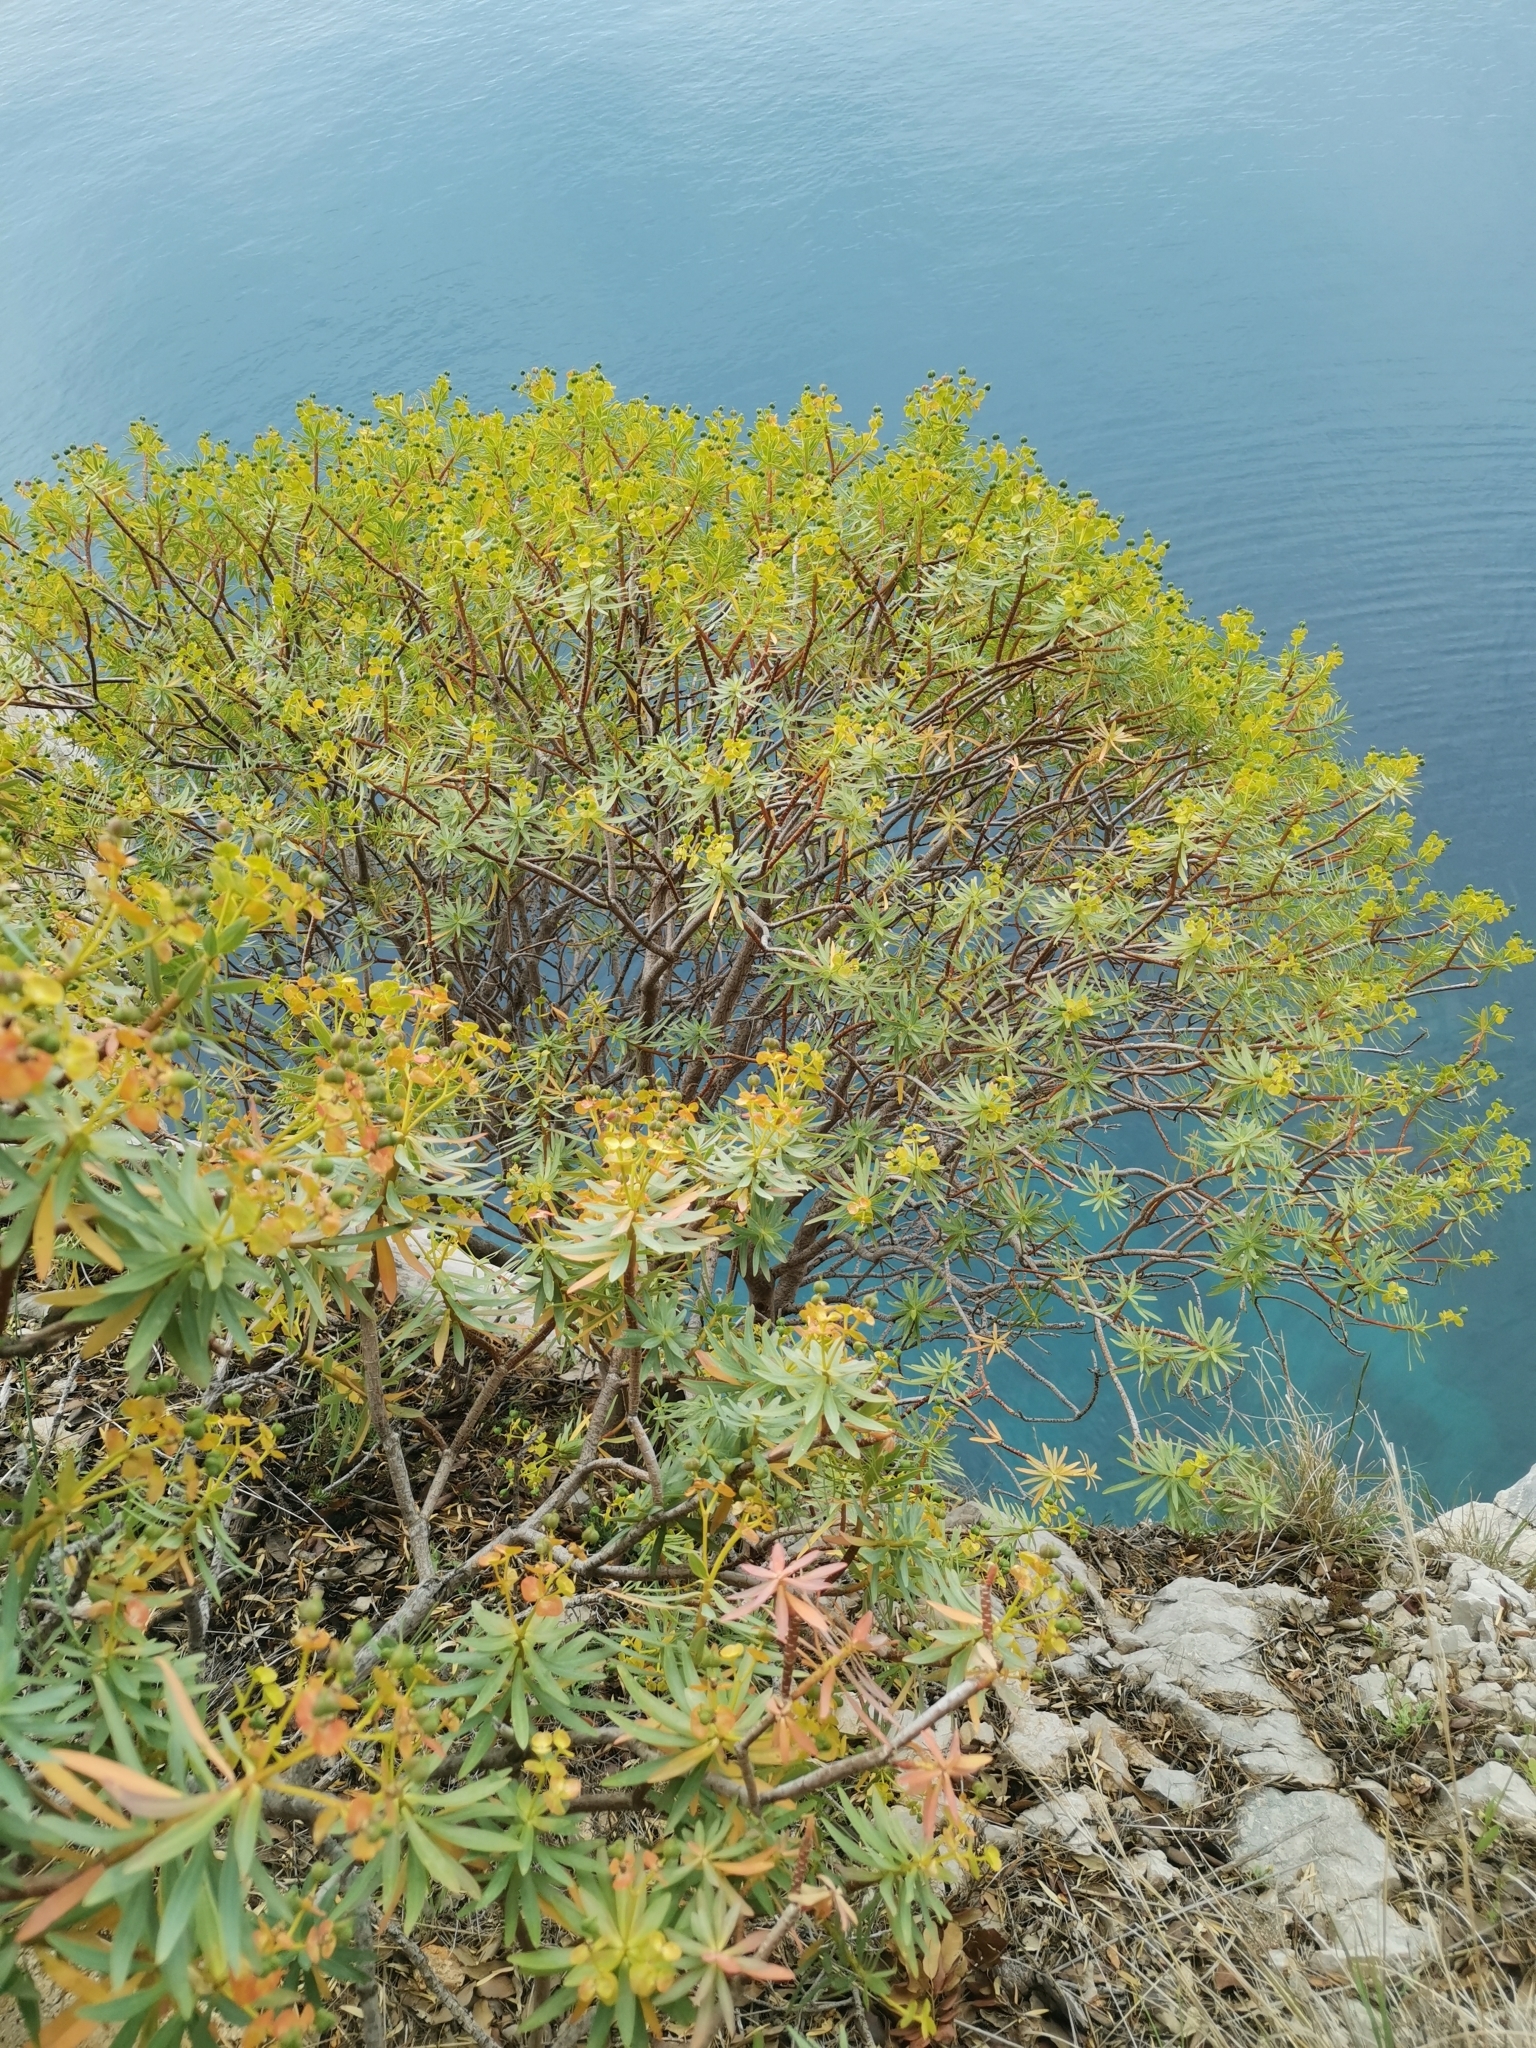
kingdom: Plantae
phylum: Tracheophyta
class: Magnoliopsida
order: Malpighiales
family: Euphorbiaceae
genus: Euphorbia
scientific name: Euphorbia dendroides
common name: Tree spurge
